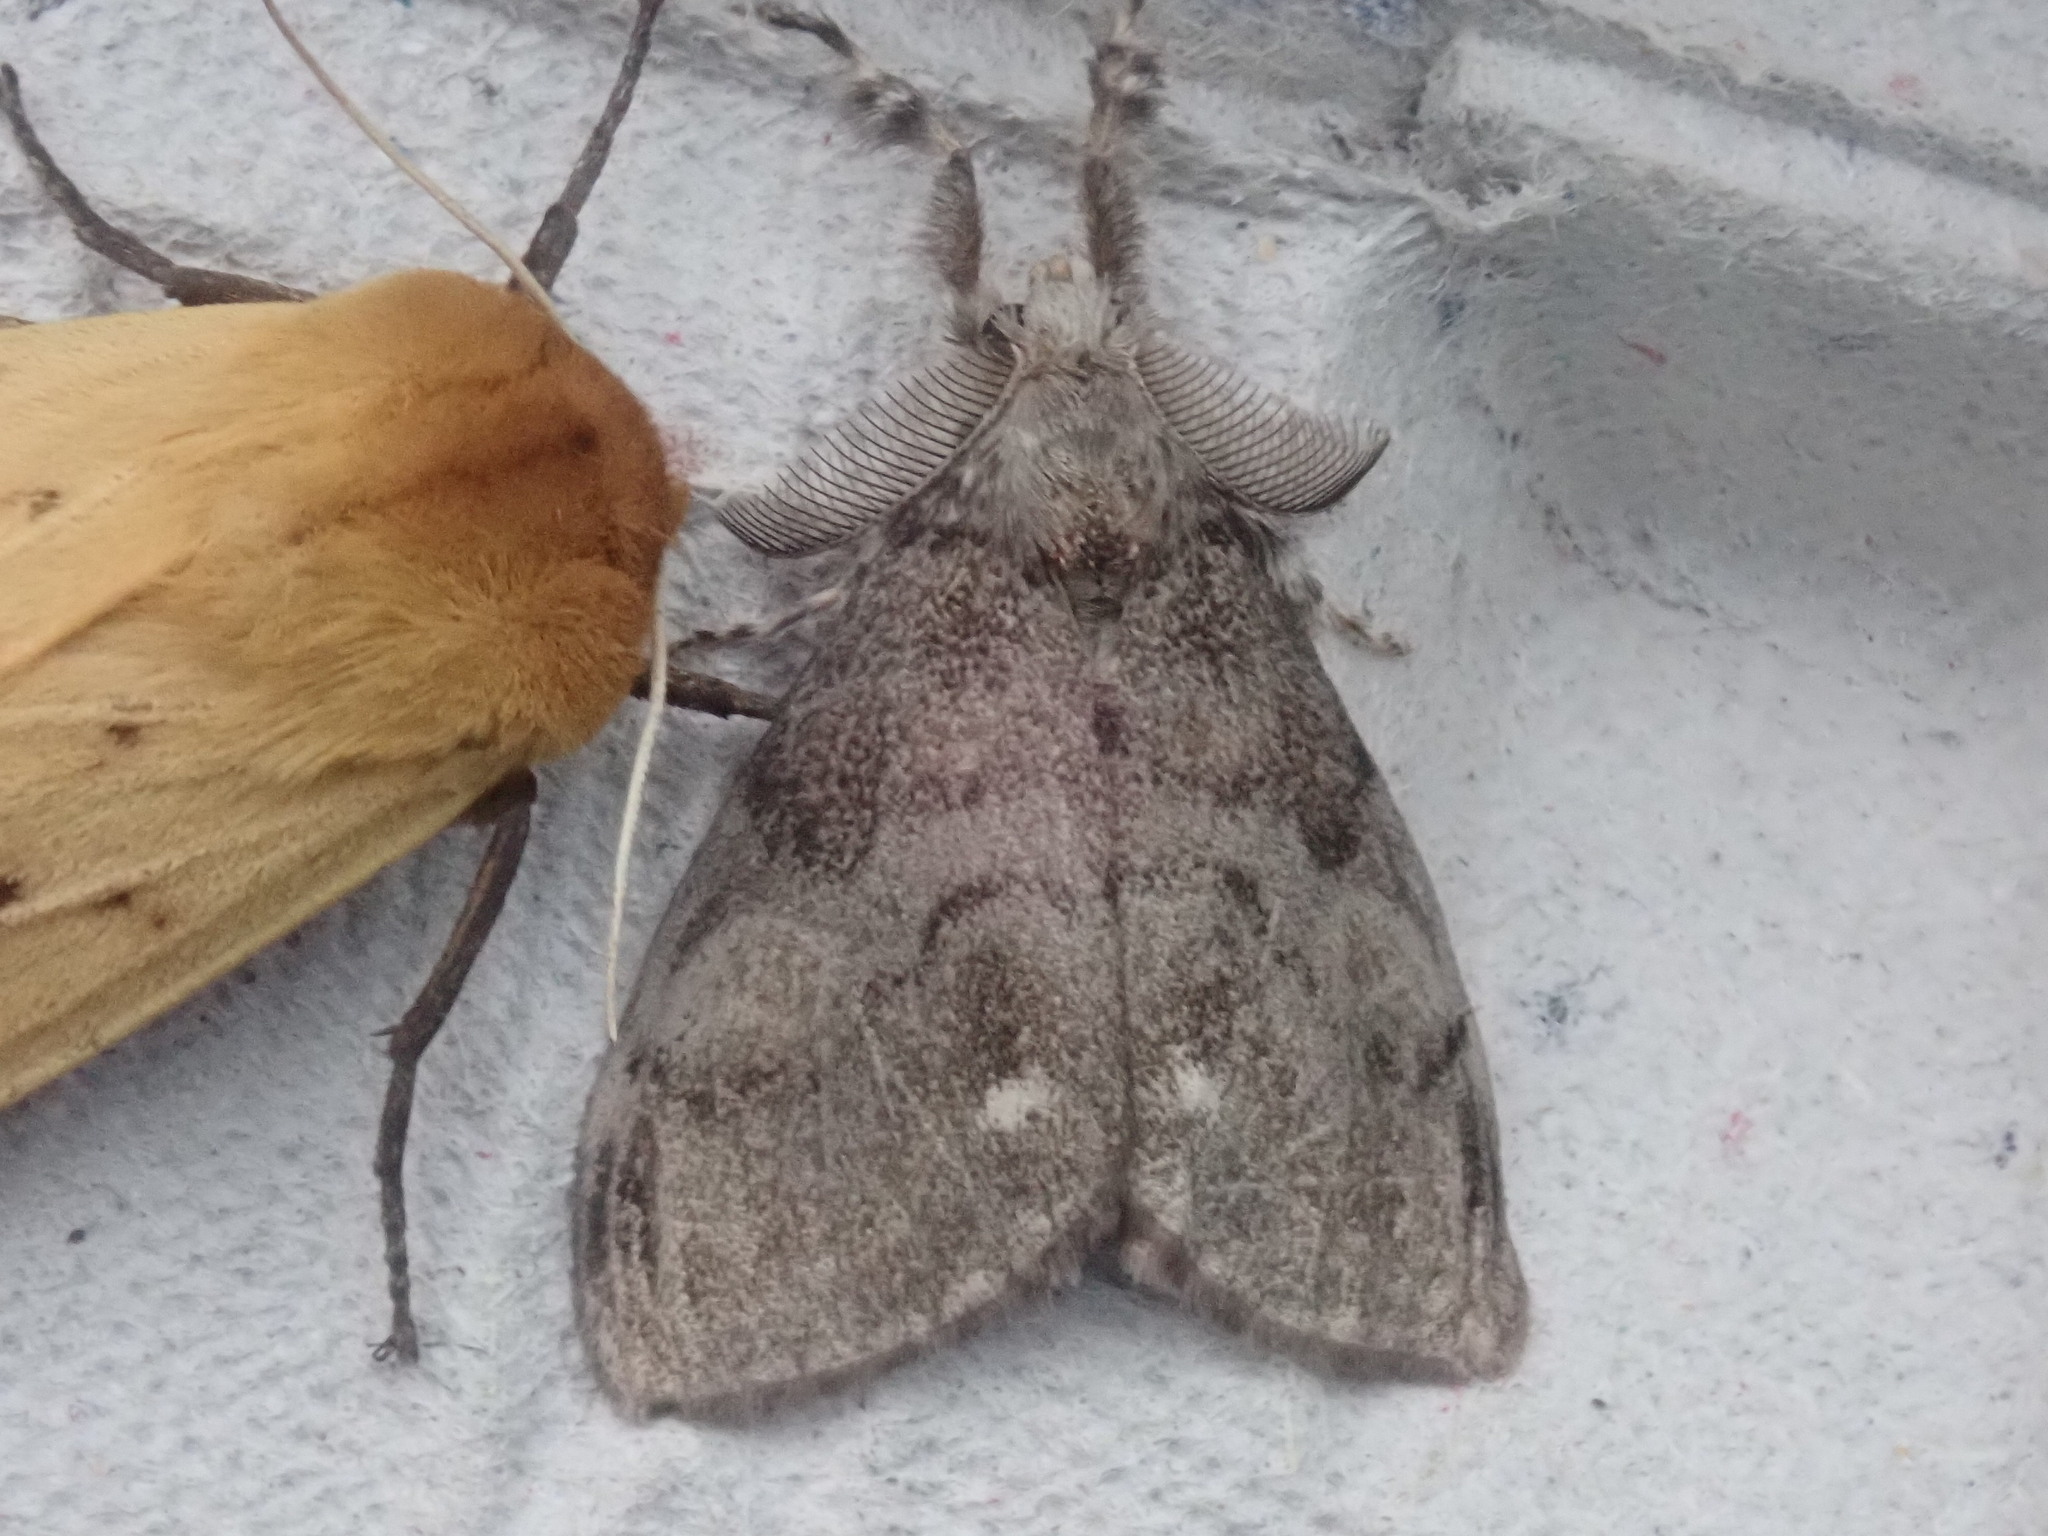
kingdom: Animalia
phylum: Arthropoda
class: Insecta
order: Lepidoptera
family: Erebidae
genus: Orgyia
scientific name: Orgyia leucostigma
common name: White-marked tussock moth
